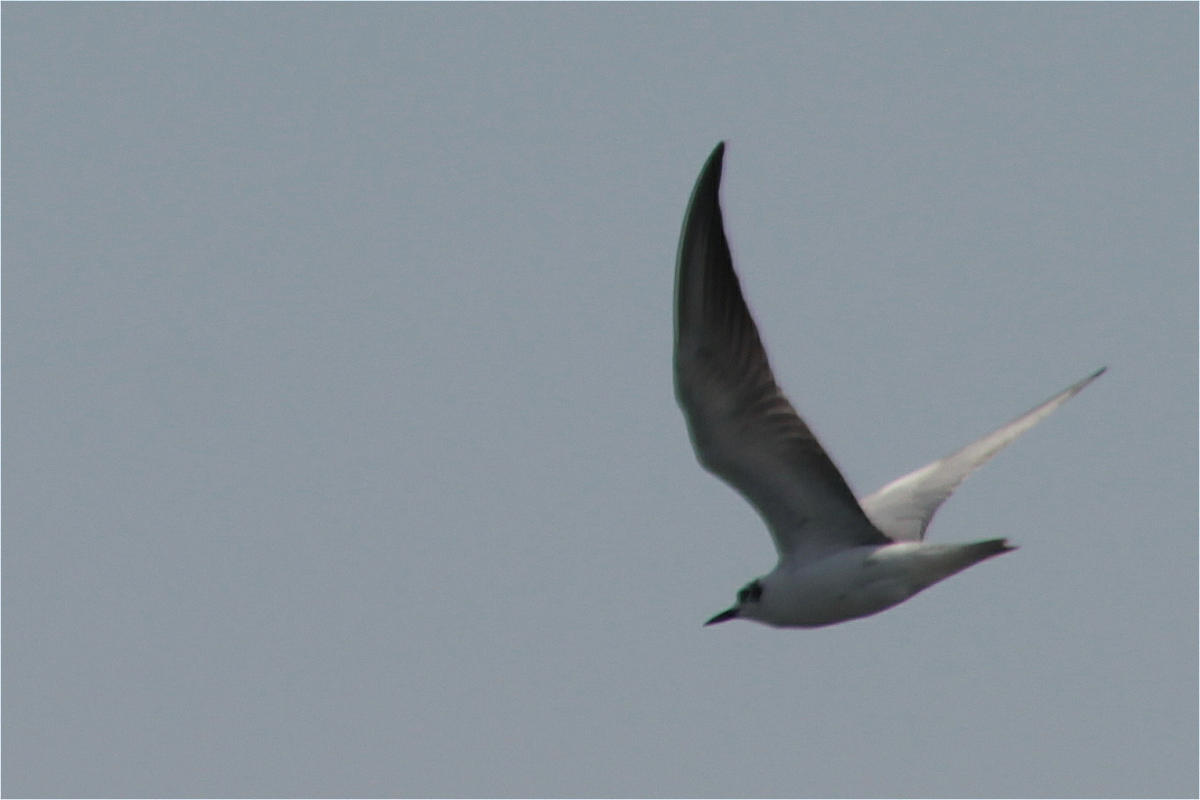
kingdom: Animalia
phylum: Chordata
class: Aves
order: Charadriiformes
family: Laridae
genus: Chlidonias
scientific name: Chlidonias hybrida
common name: Whiskered tern
